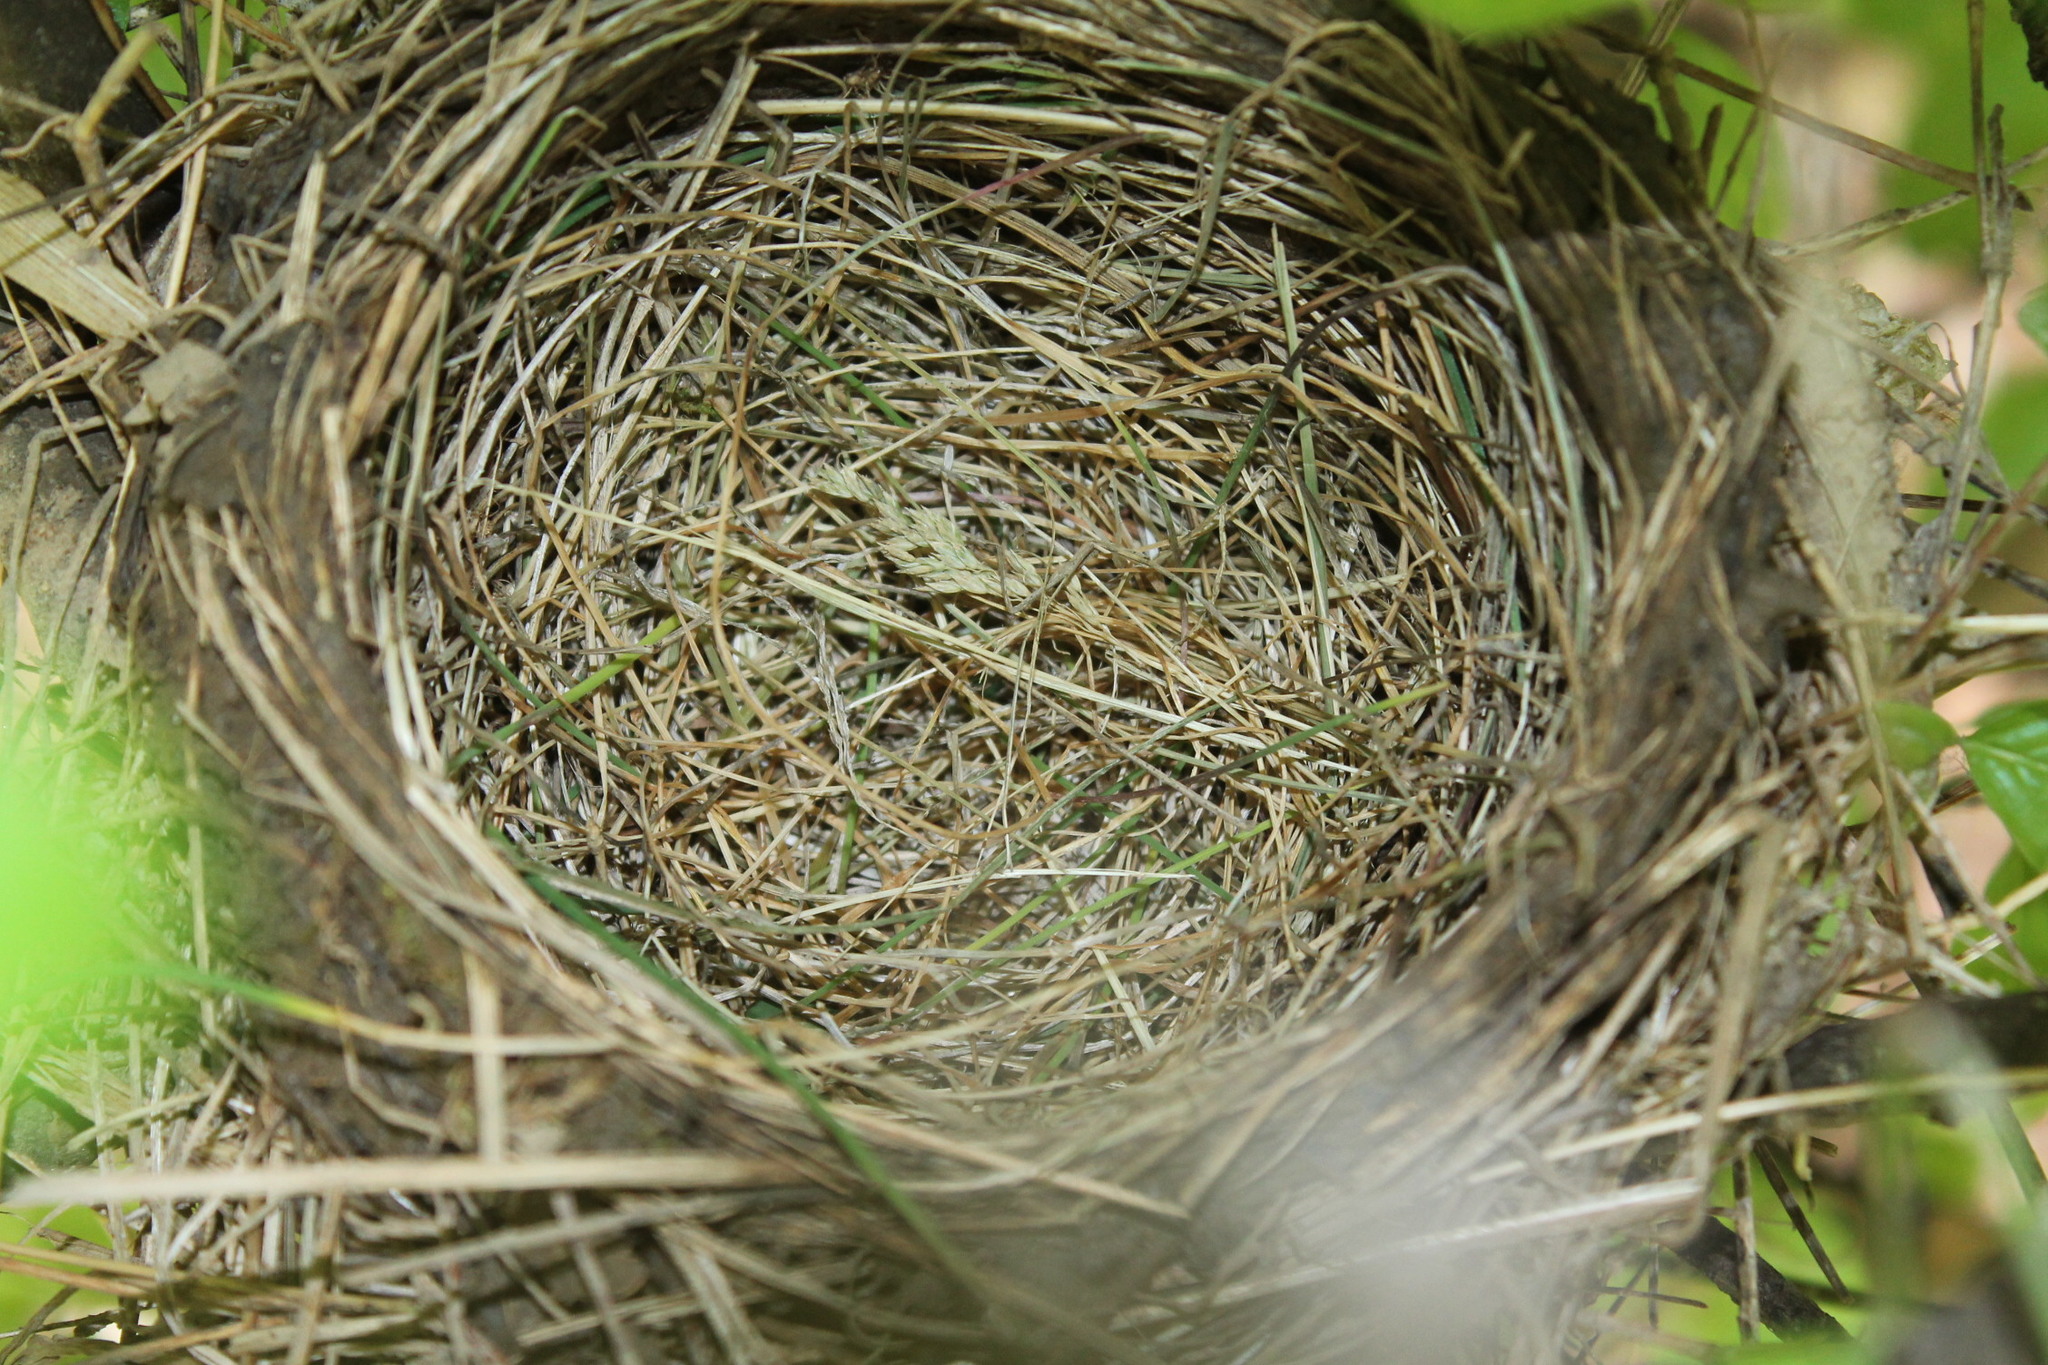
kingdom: Animalia
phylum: Chordata
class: Aves
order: Passeriformes
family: Turdidae
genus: Turdus
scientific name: Turdus migratorius
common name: American robin
